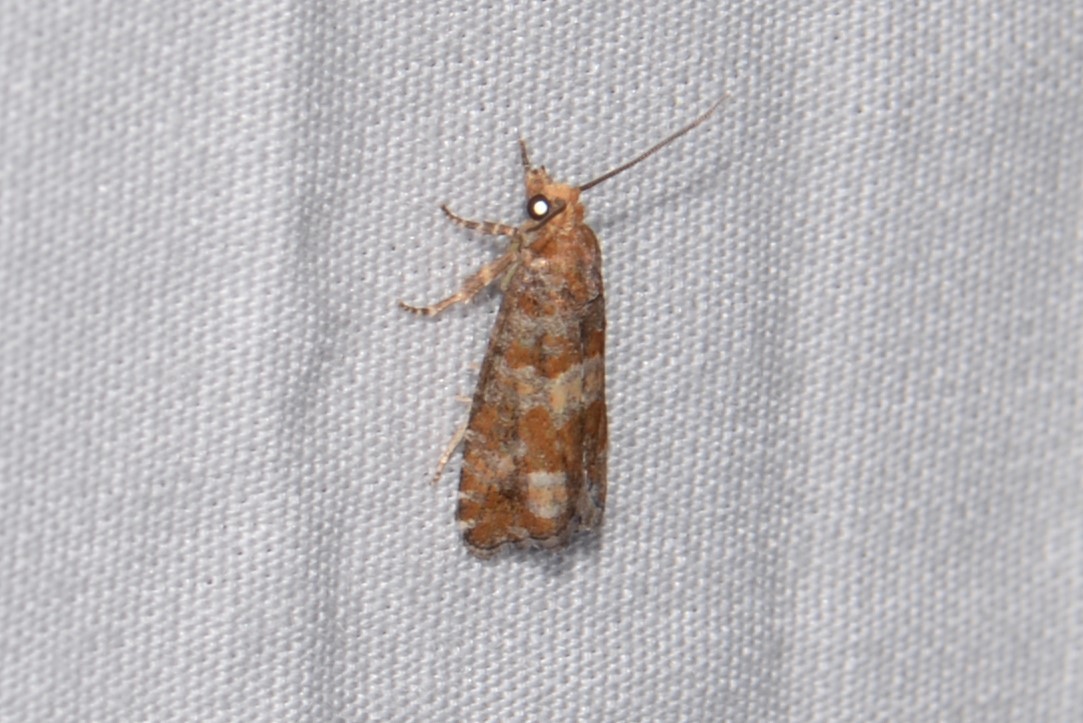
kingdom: Animalia
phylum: Arthropoda
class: Insecta
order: Lepidoptera
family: Tortricidae
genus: Eucopina
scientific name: Eucopina tocullionana
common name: White pinecone borer moth
